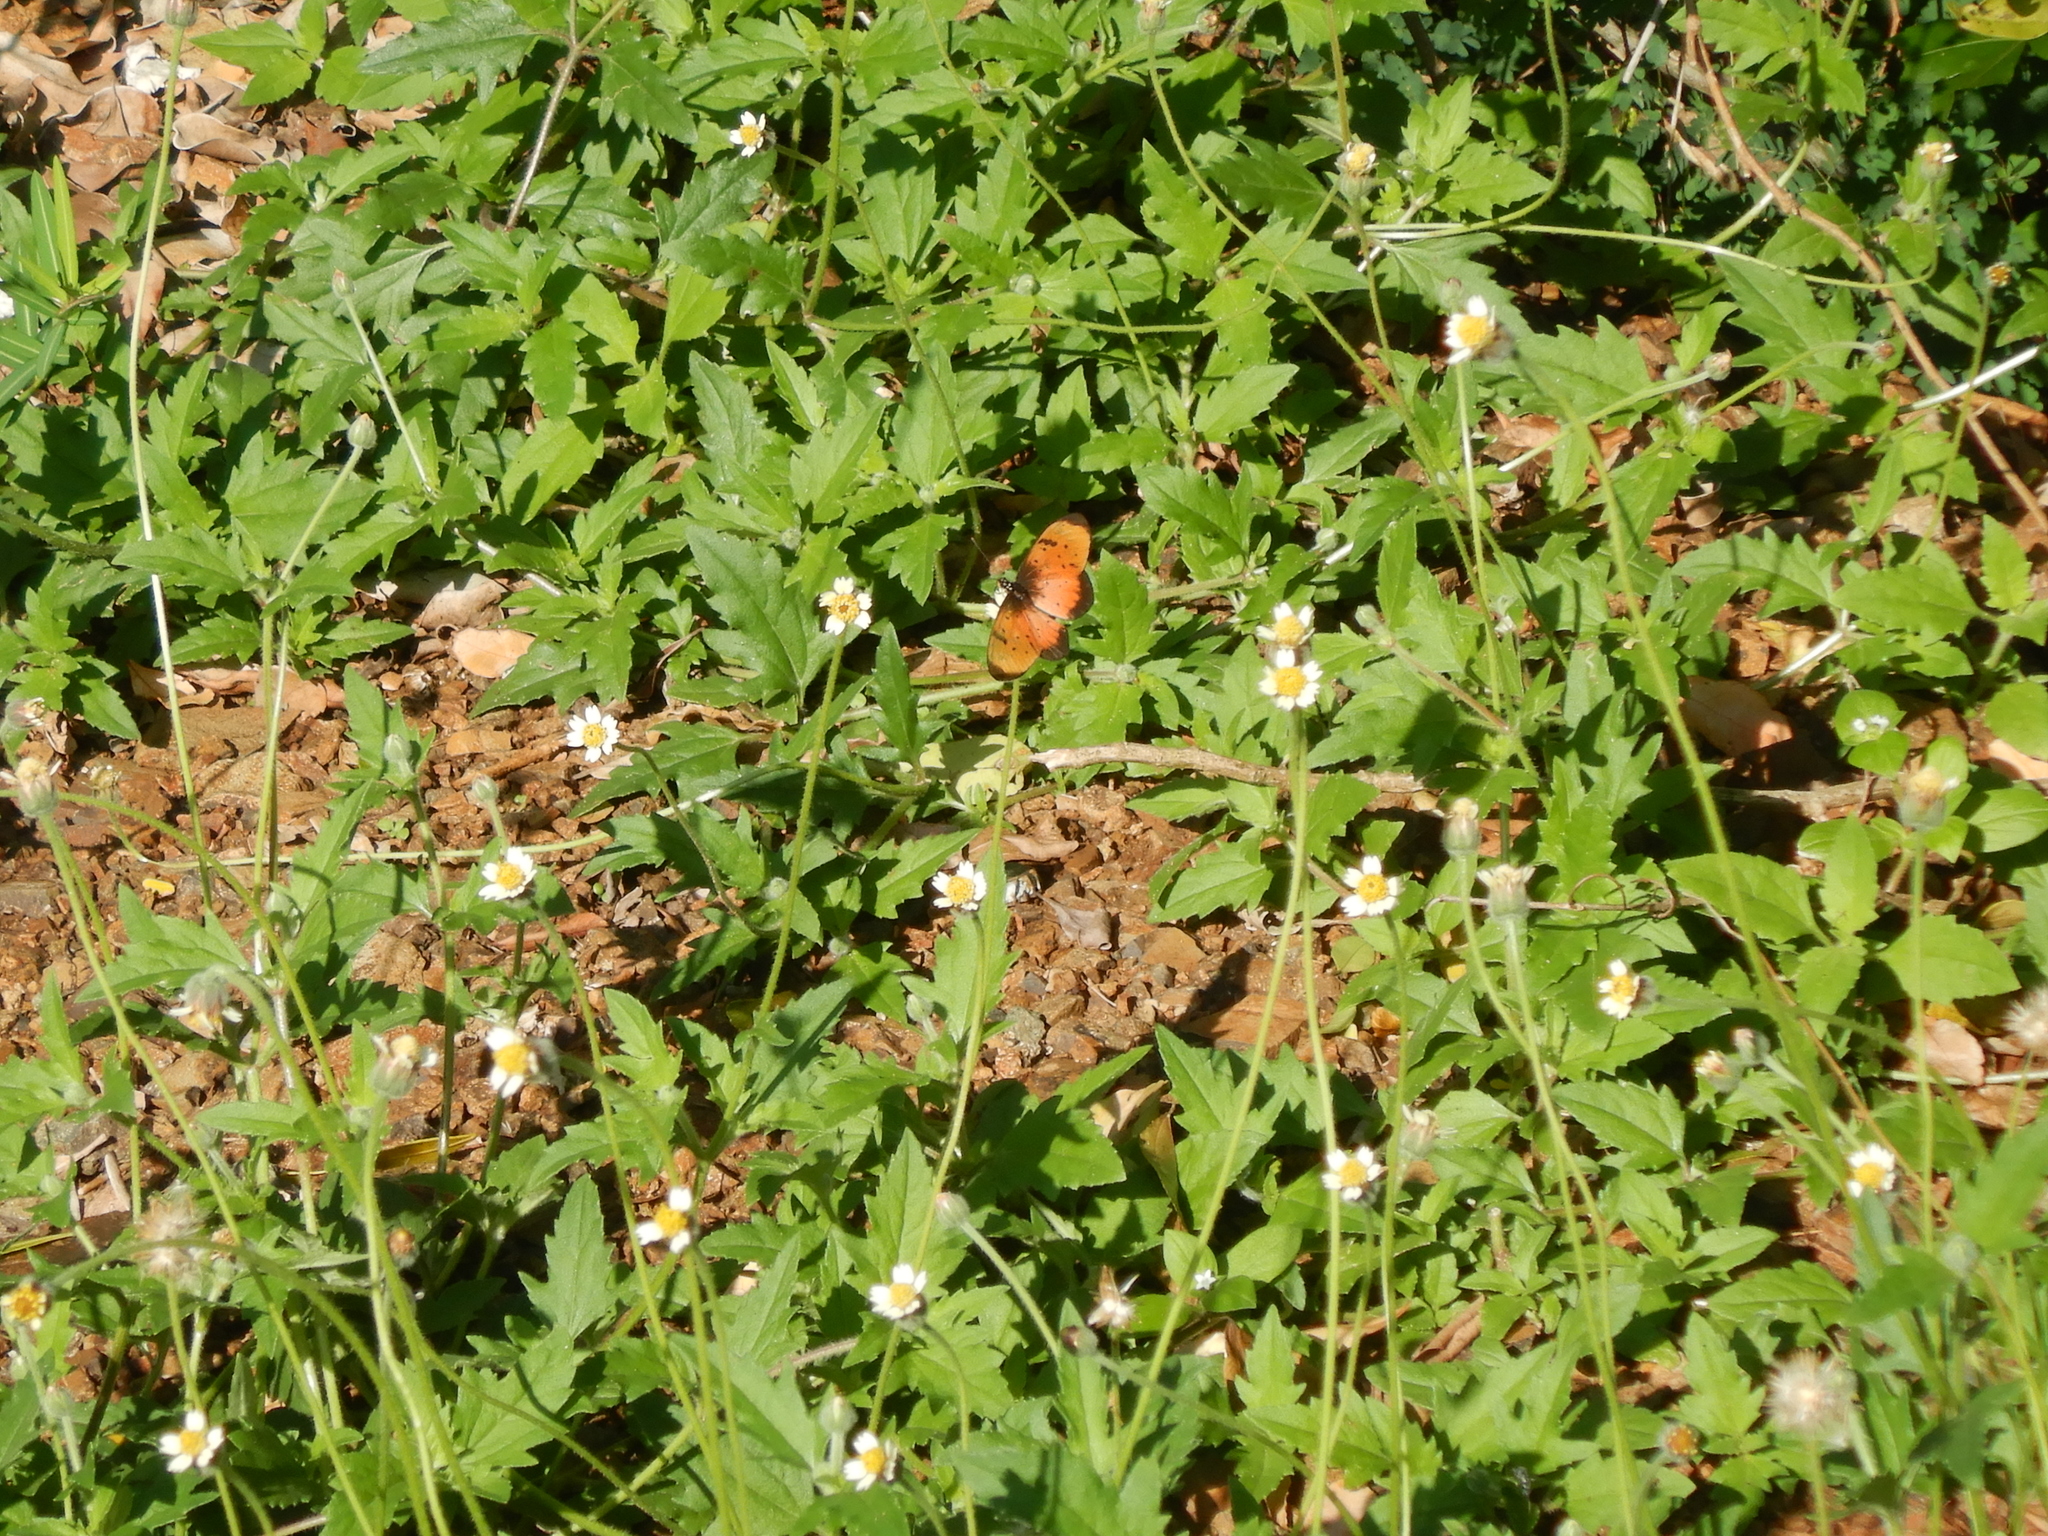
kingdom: Animalia
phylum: Arthropoda
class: Insecta
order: Lepidoptera
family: Nymphalidae
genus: Stephenia
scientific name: Stephenia
